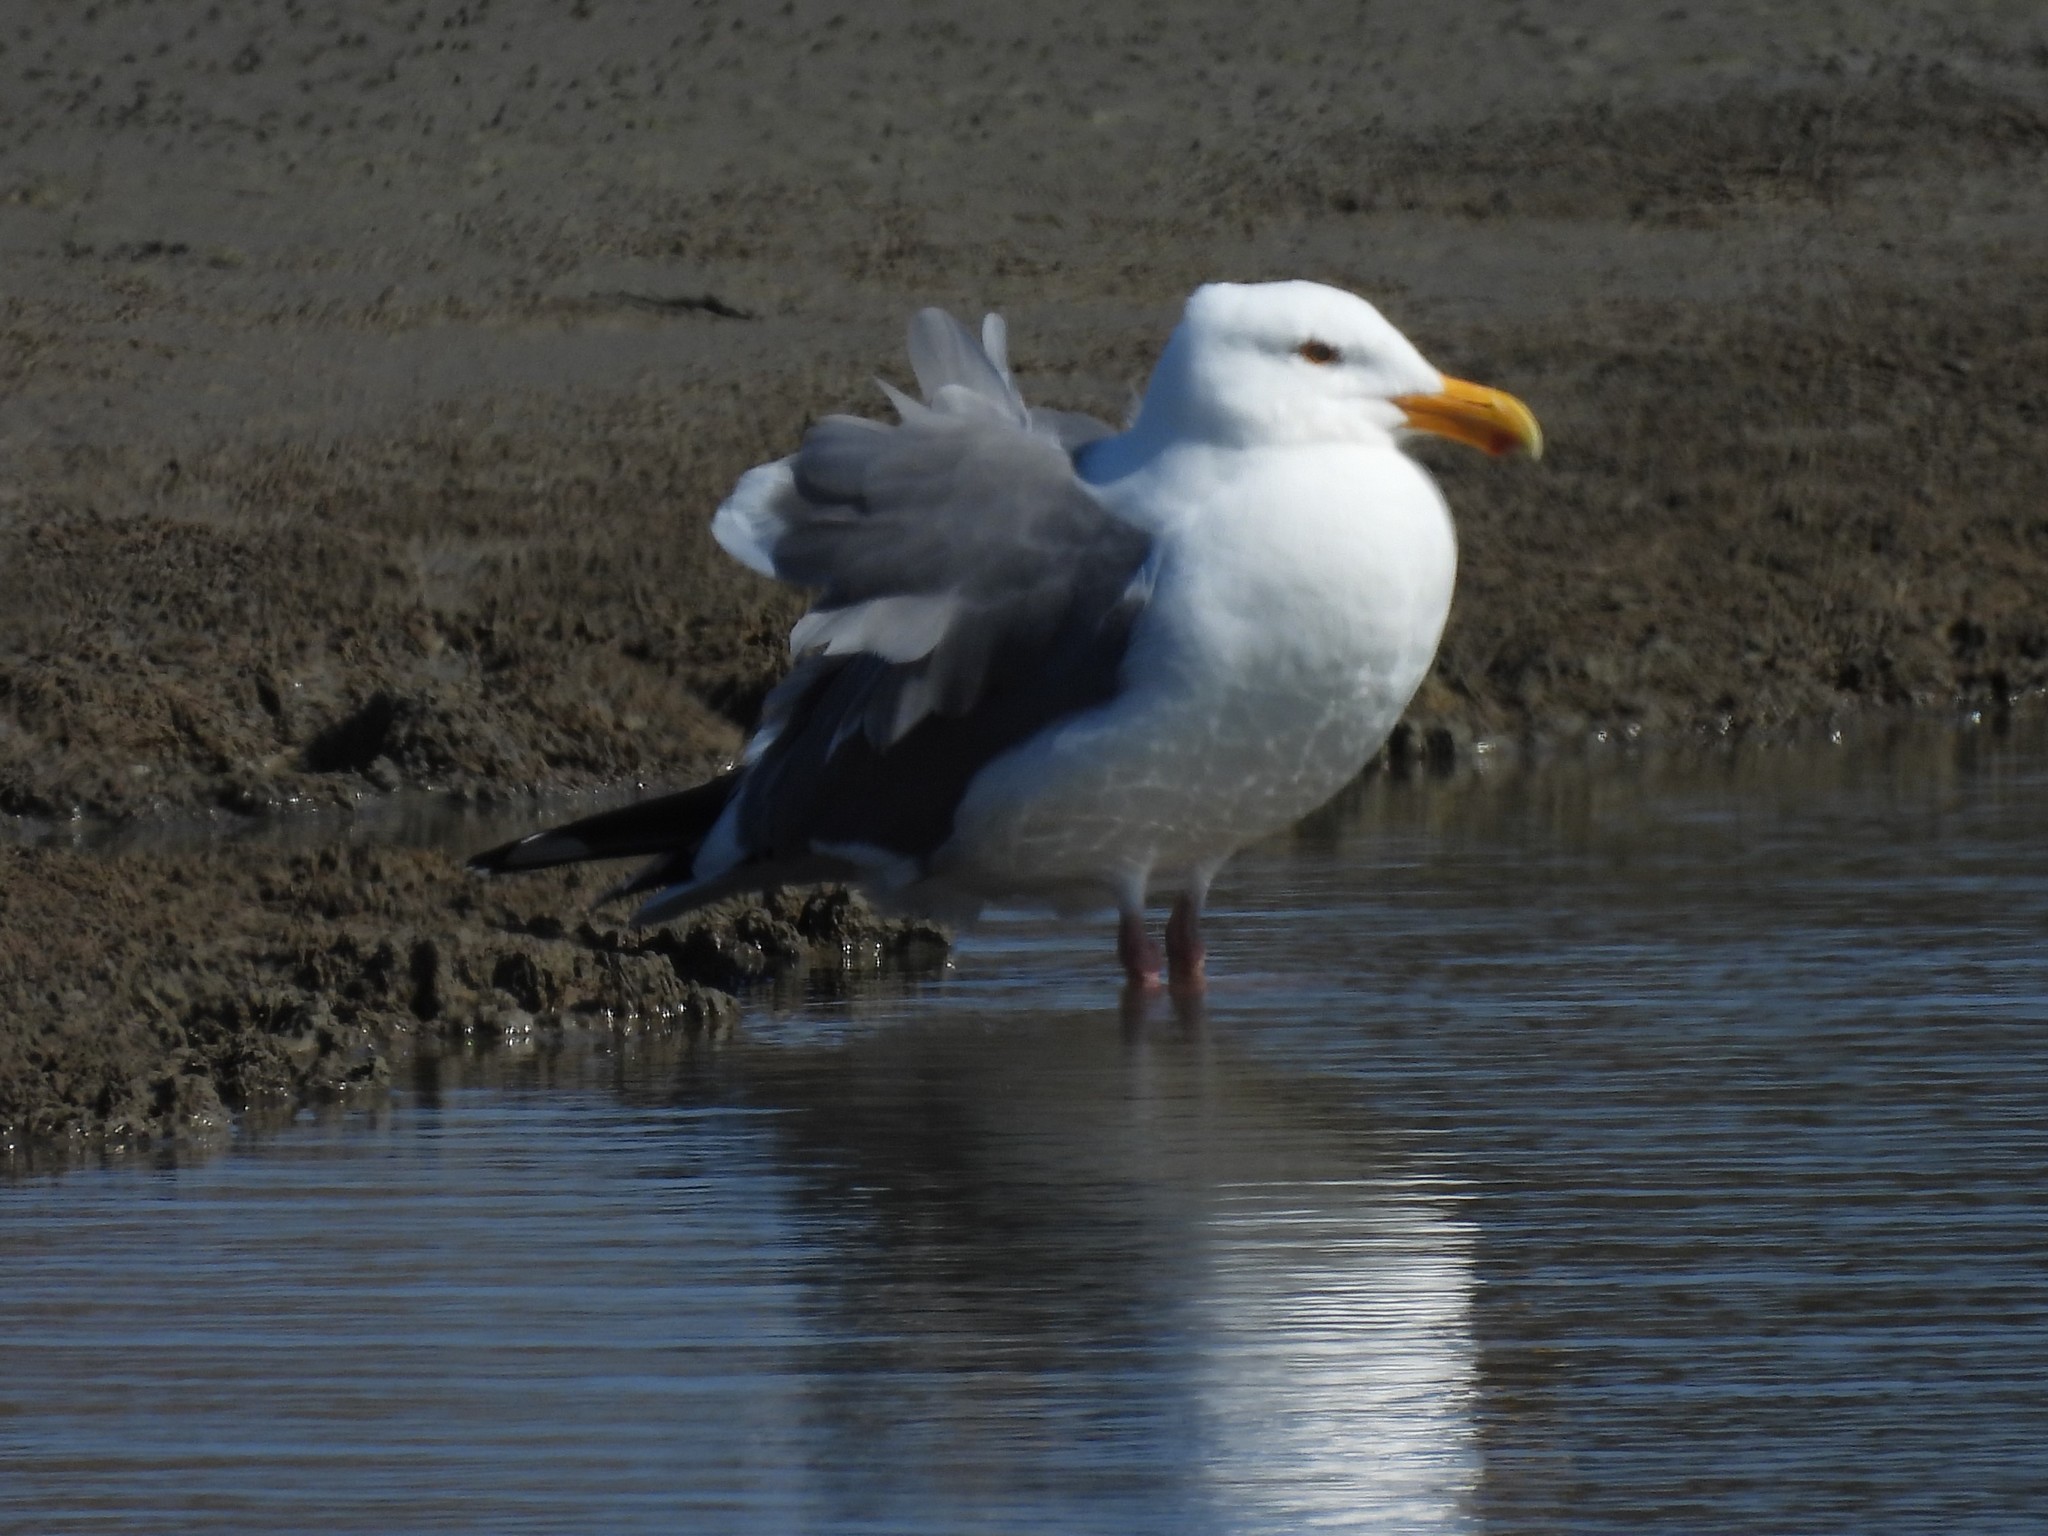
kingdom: Animalia
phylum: Chordata
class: Aves
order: Charadriiformes
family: Laridae
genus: Larus
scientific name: Larus occidentalis
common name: Western gull
